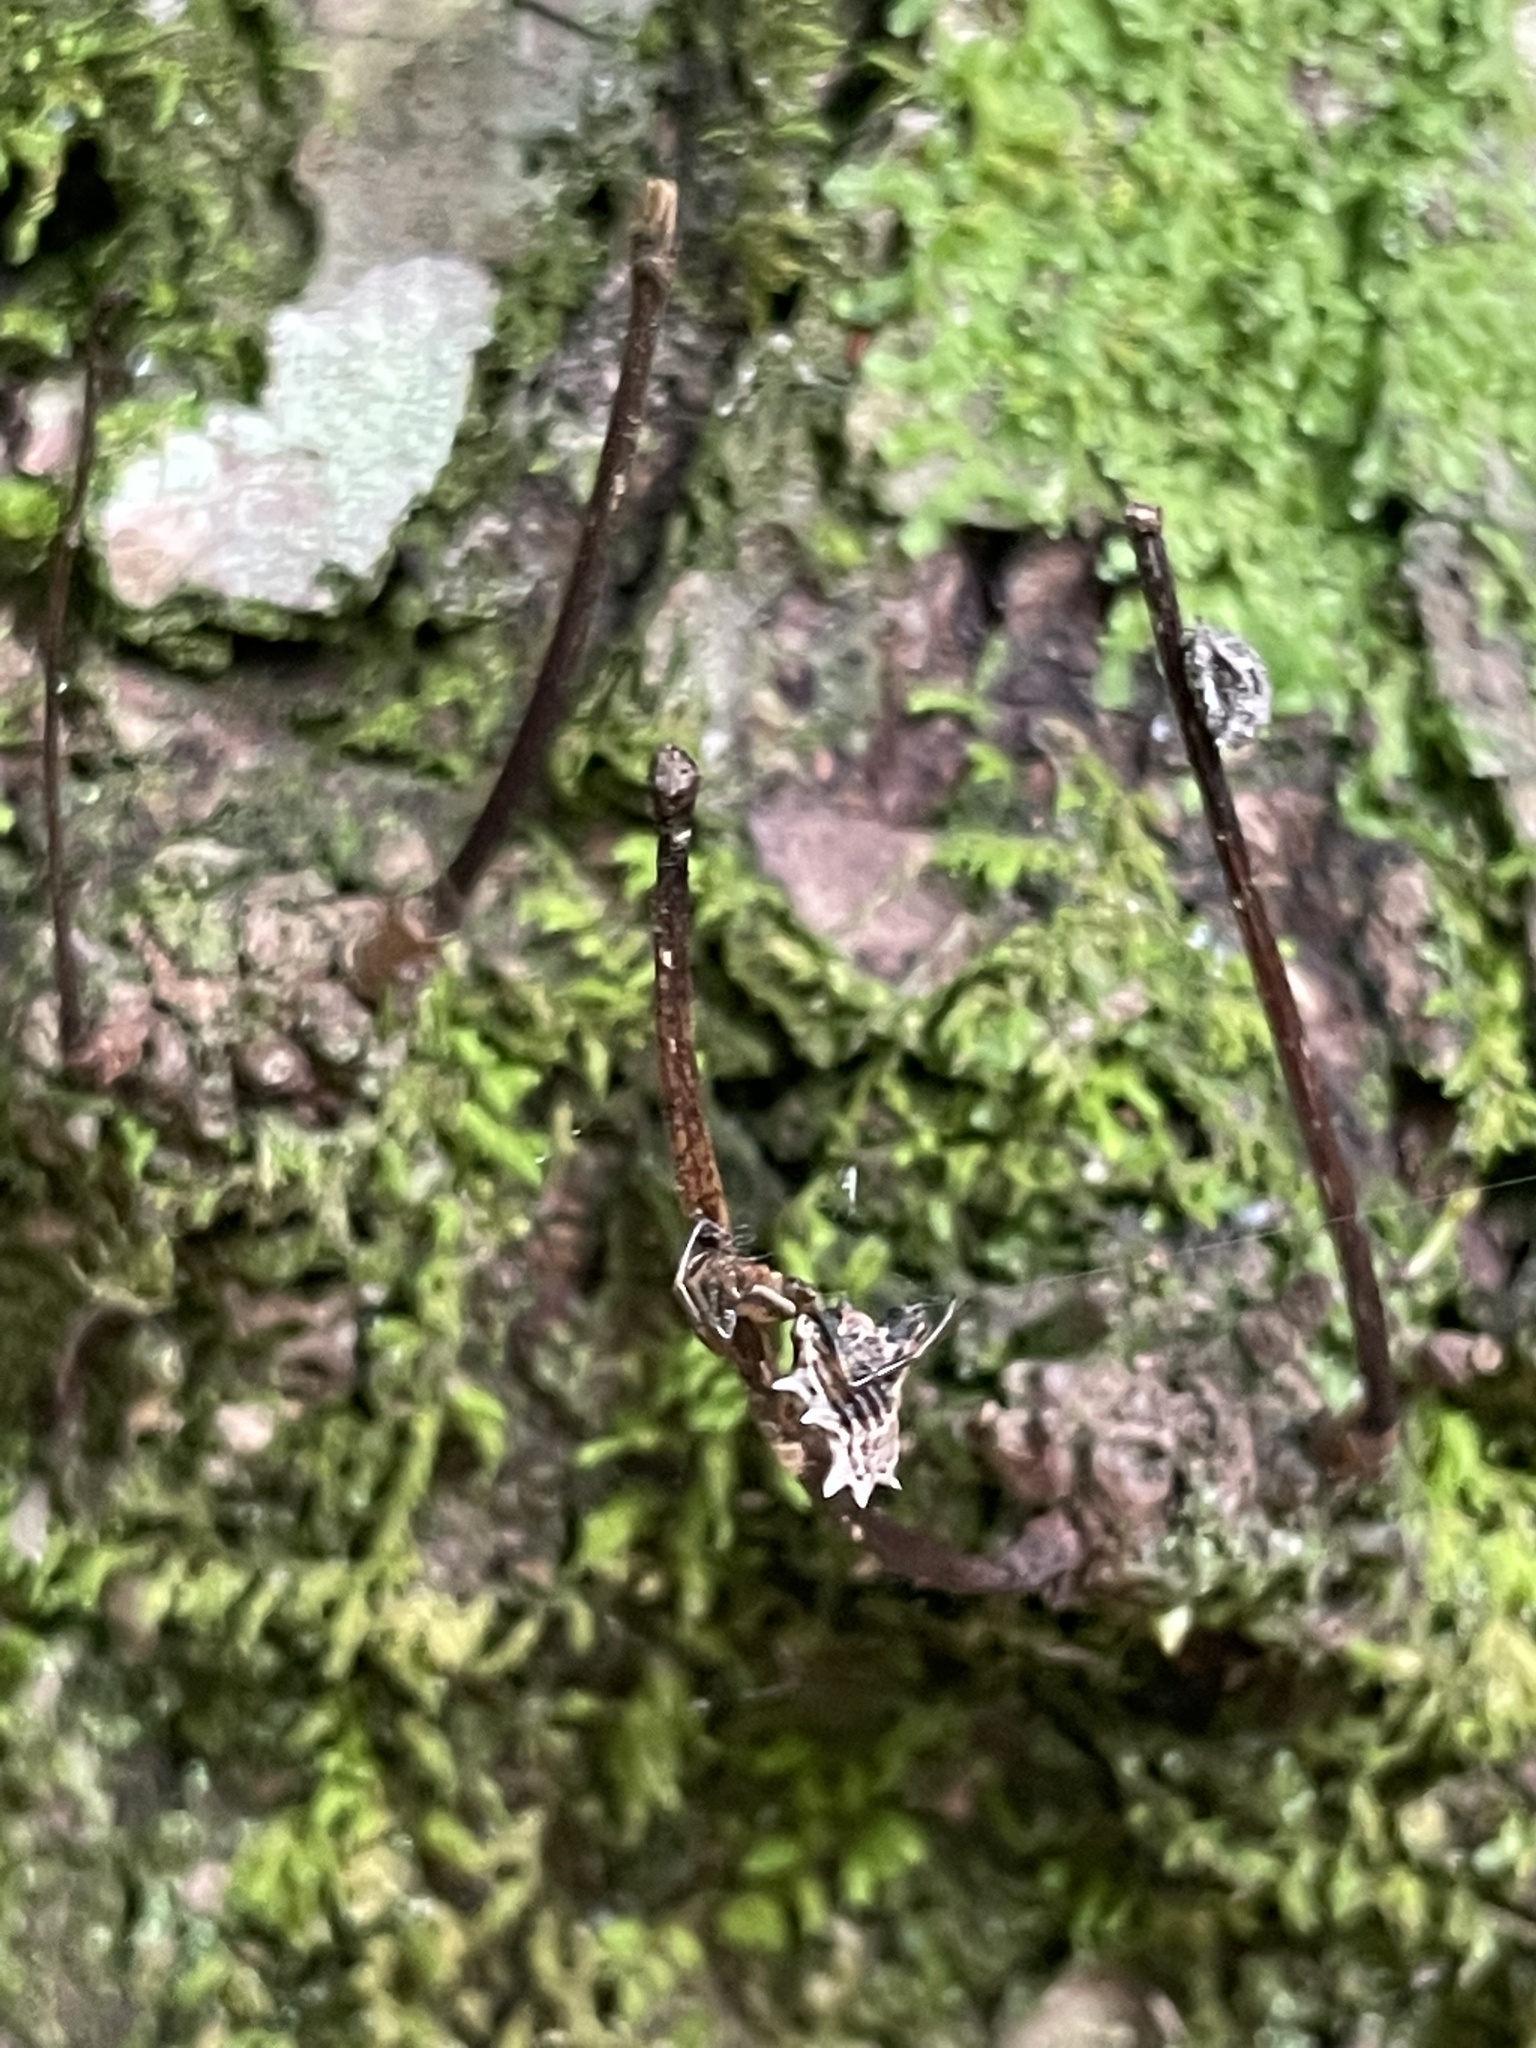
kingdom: Animalia
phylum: Arthropoda
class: Arachnida
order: Araneae
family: Araneidae
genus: Micrathena
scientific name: Micrathena gracilis
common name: Orb weavers
